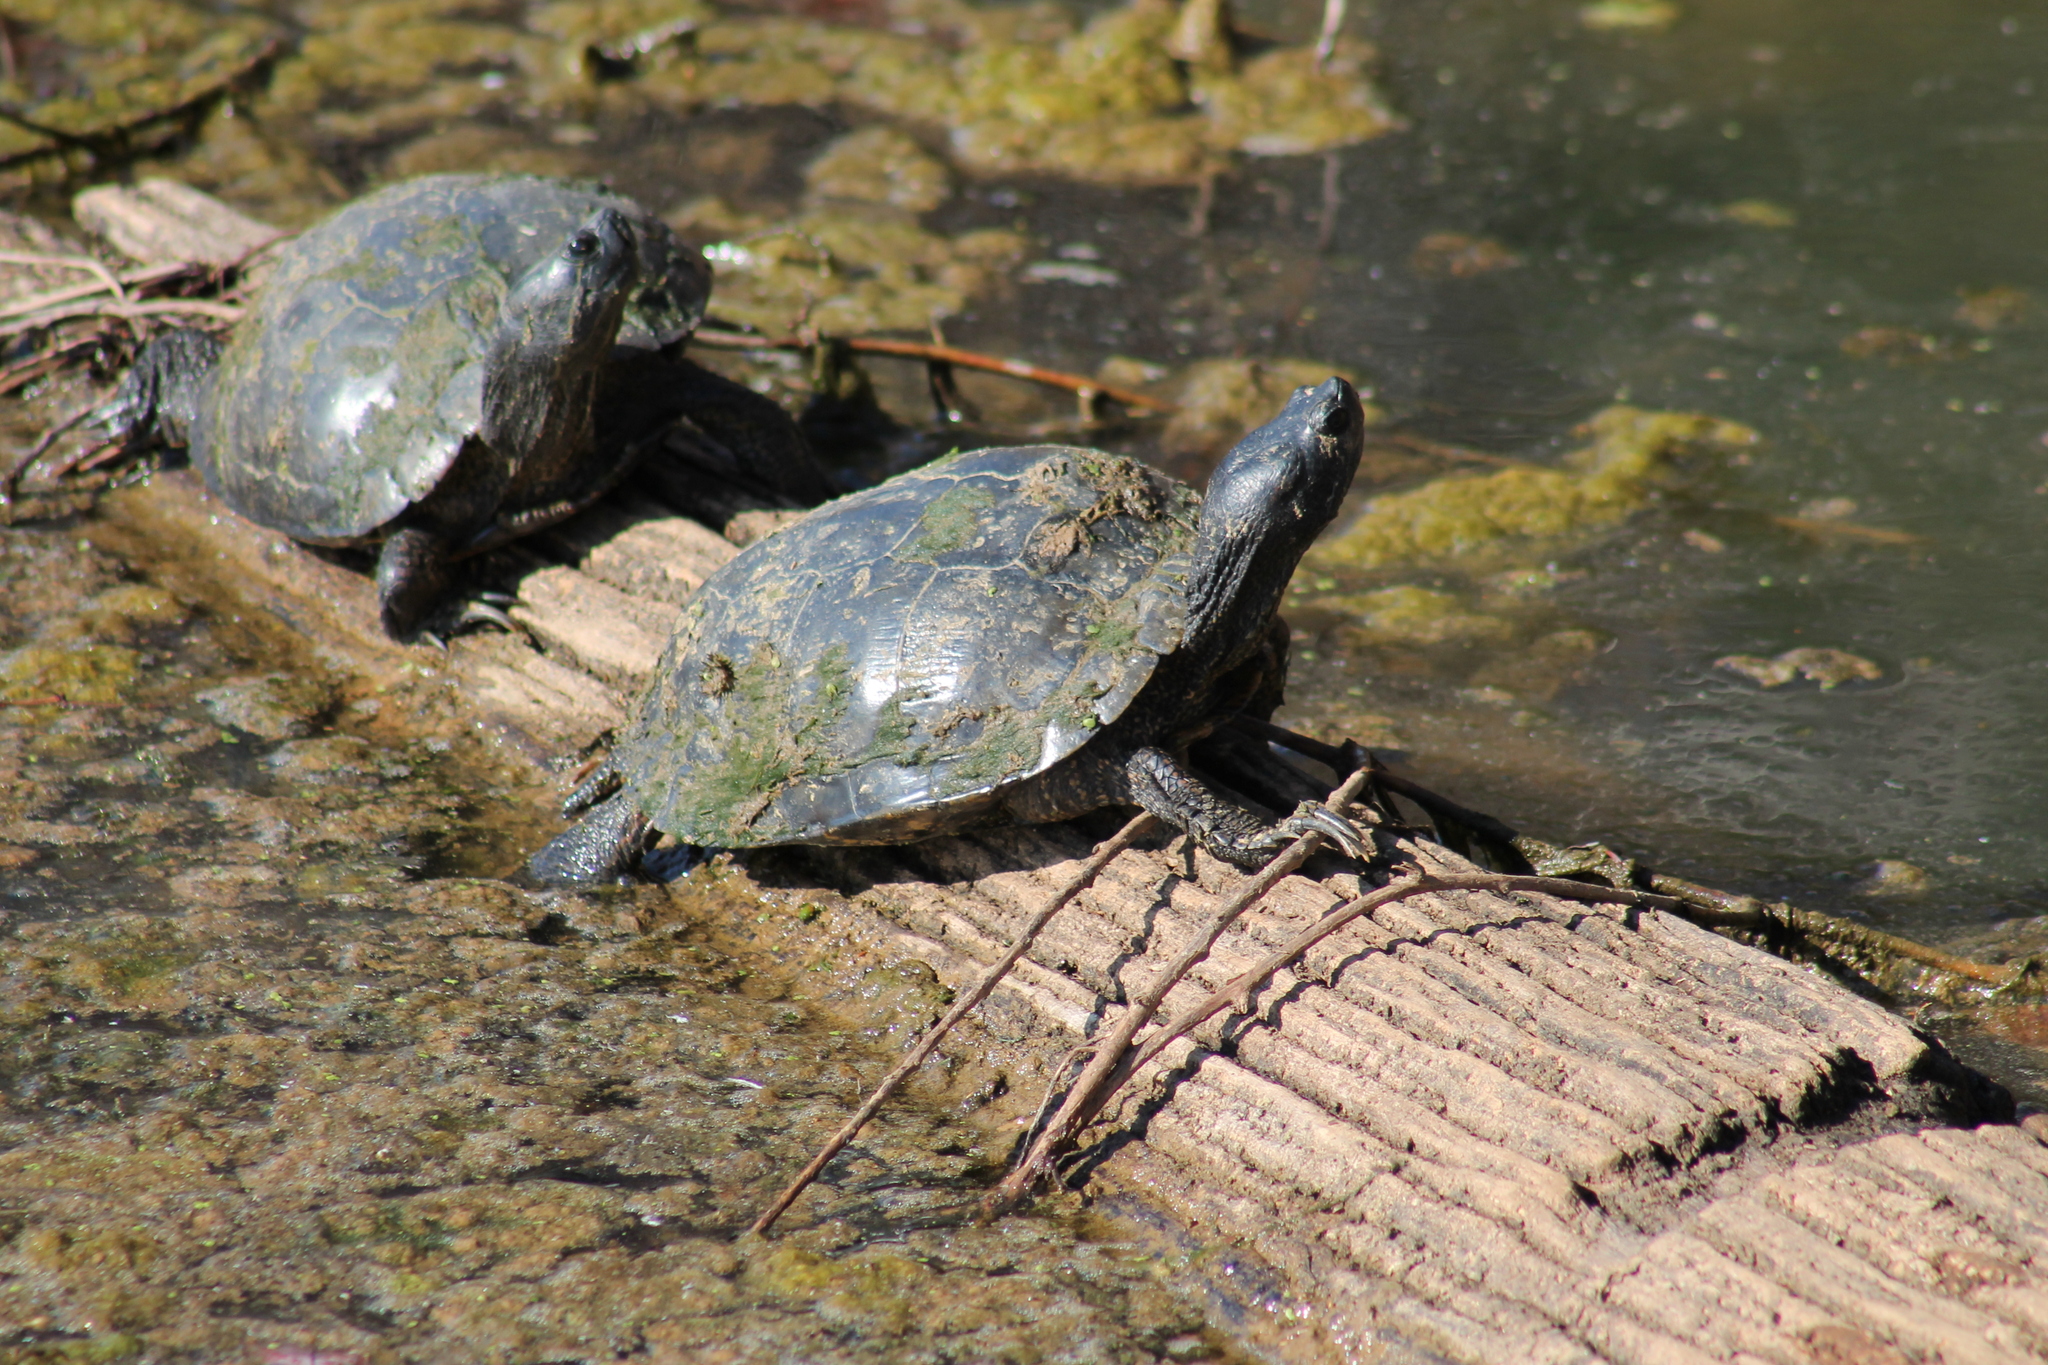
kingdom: Animalia
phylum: Chordata
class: Testudines
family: Emydidae
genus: Trachemys
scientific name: Trachemys scripta
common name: Slider
